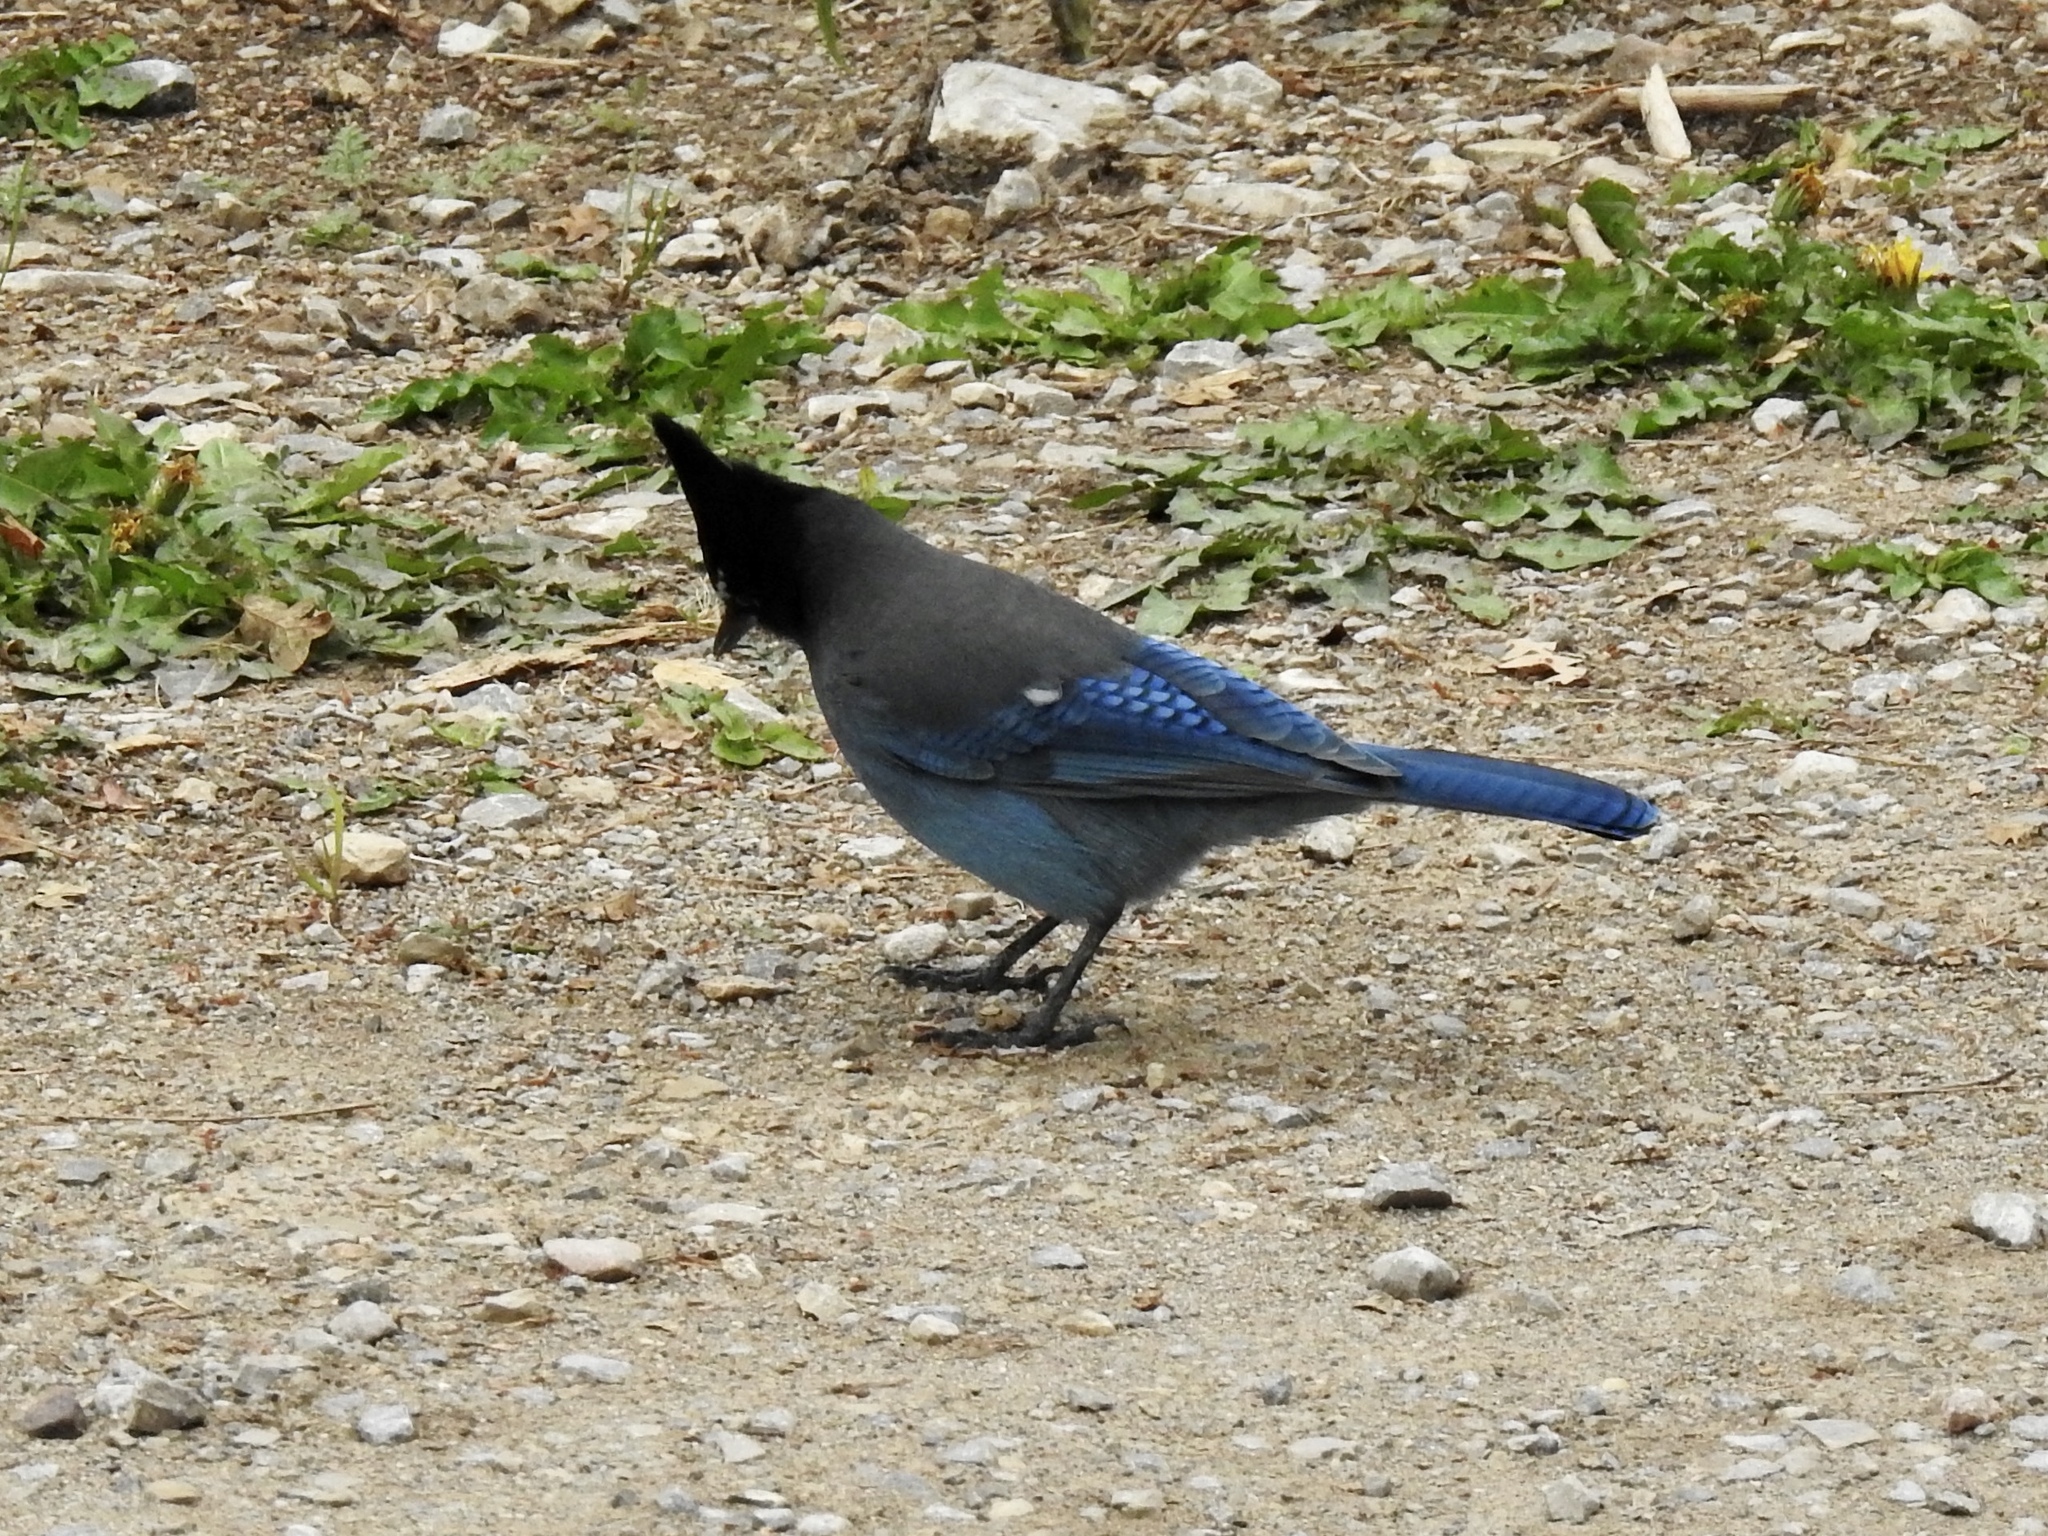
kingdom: Animalia
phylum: Chordata
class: Aves
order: Passeriformes
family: Corvidae
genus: Cyanocitta
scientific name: Cyanocitta stelleri
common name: Steller's jay
